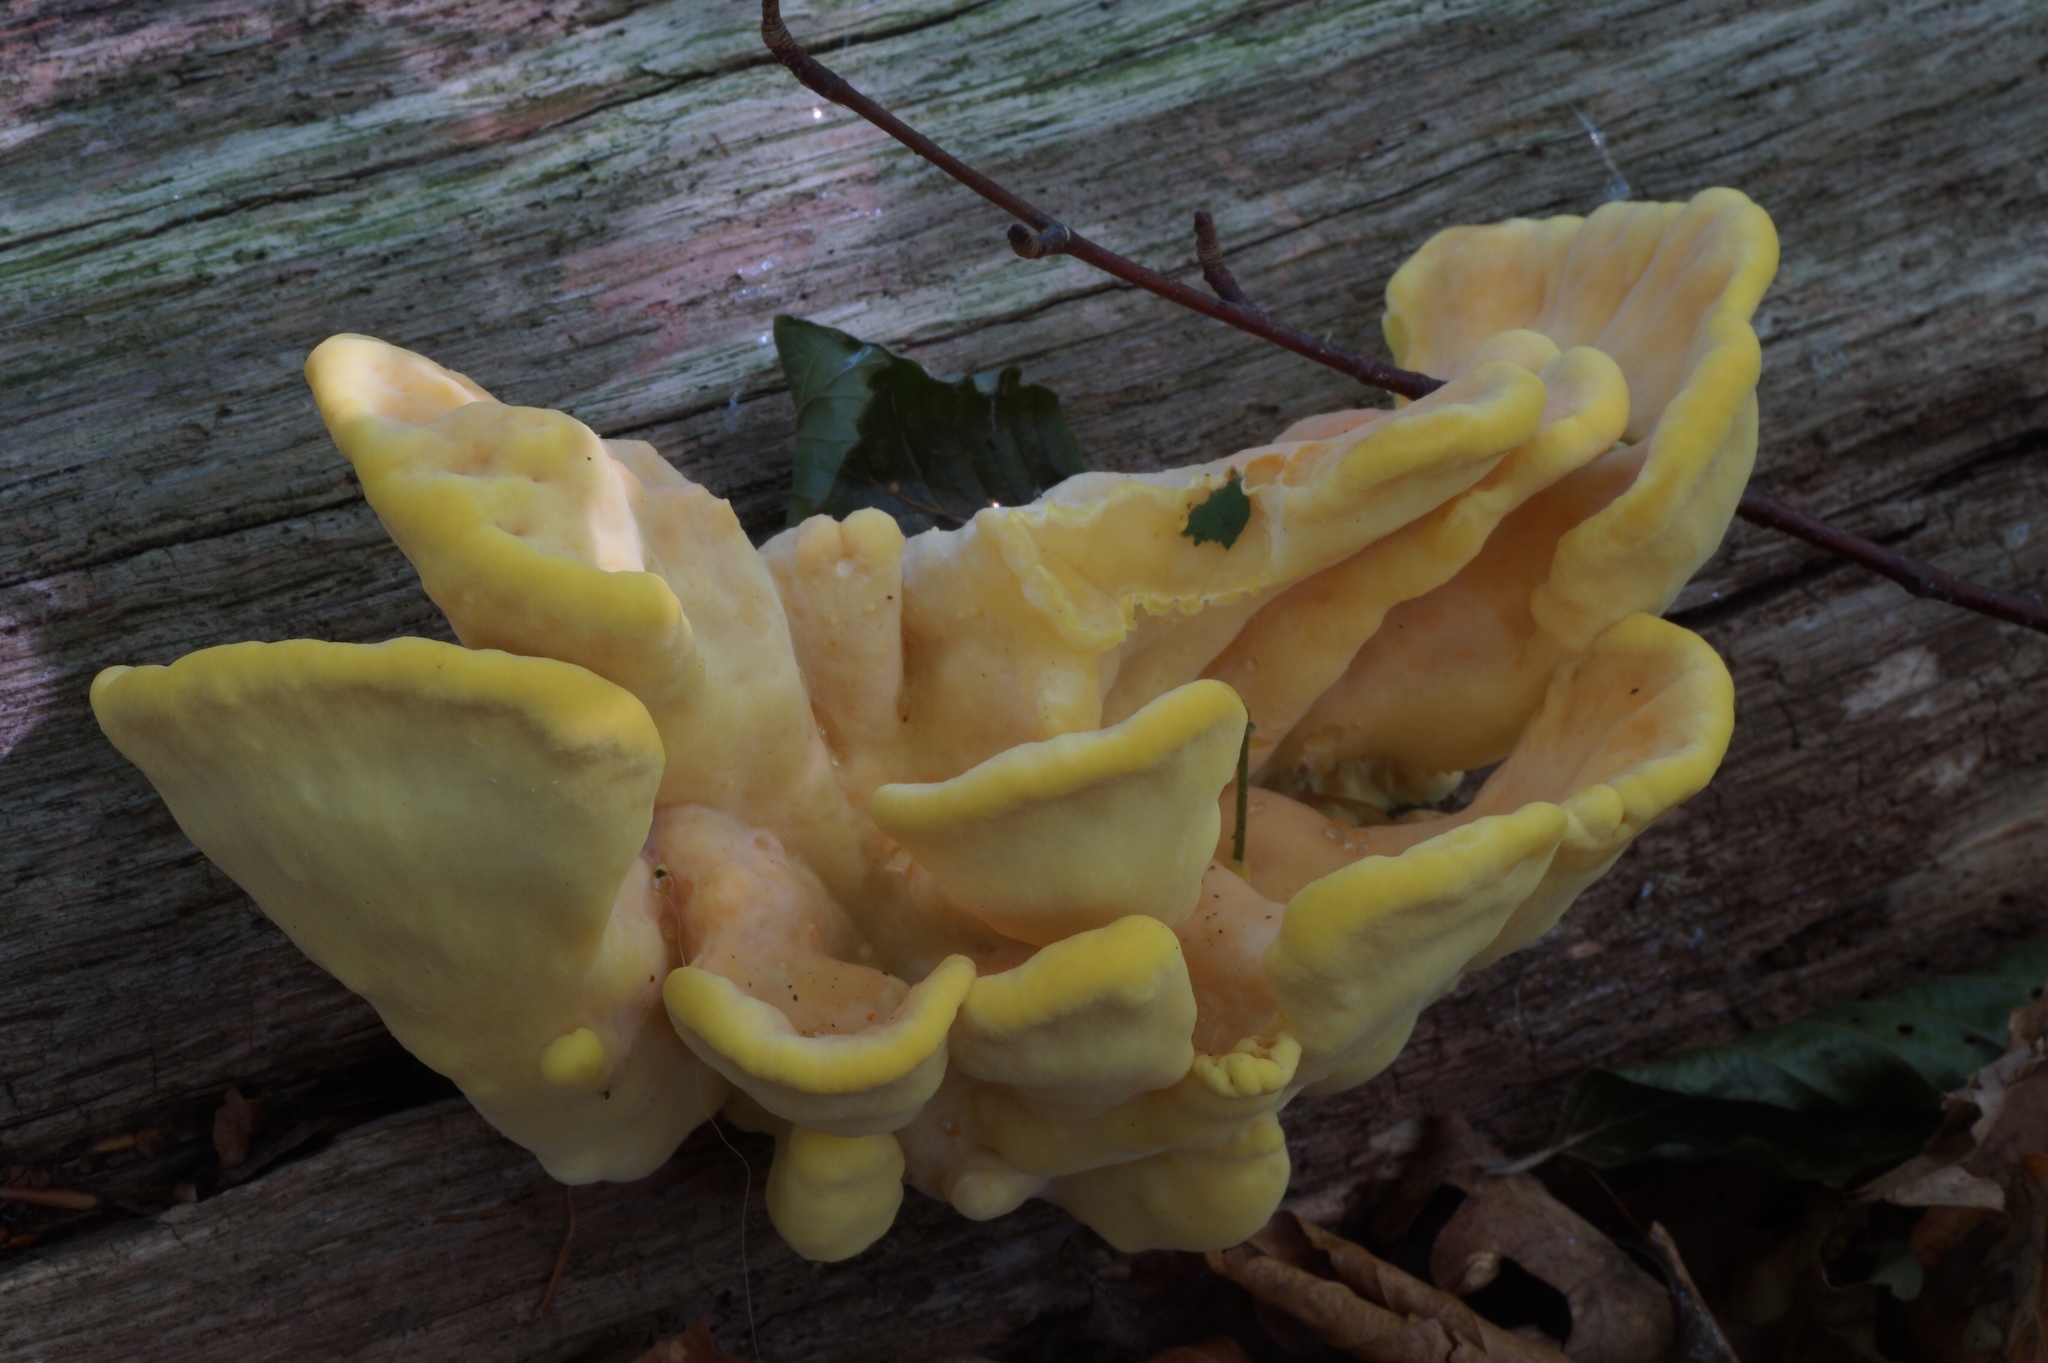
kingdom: Fungi
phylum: Basidiomycota
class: Agaricomycetes
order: Polyporales
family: Laetiporaceae
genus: Laetiporus
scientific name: Laetiporus sulphureus
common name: Chicken of the woods
